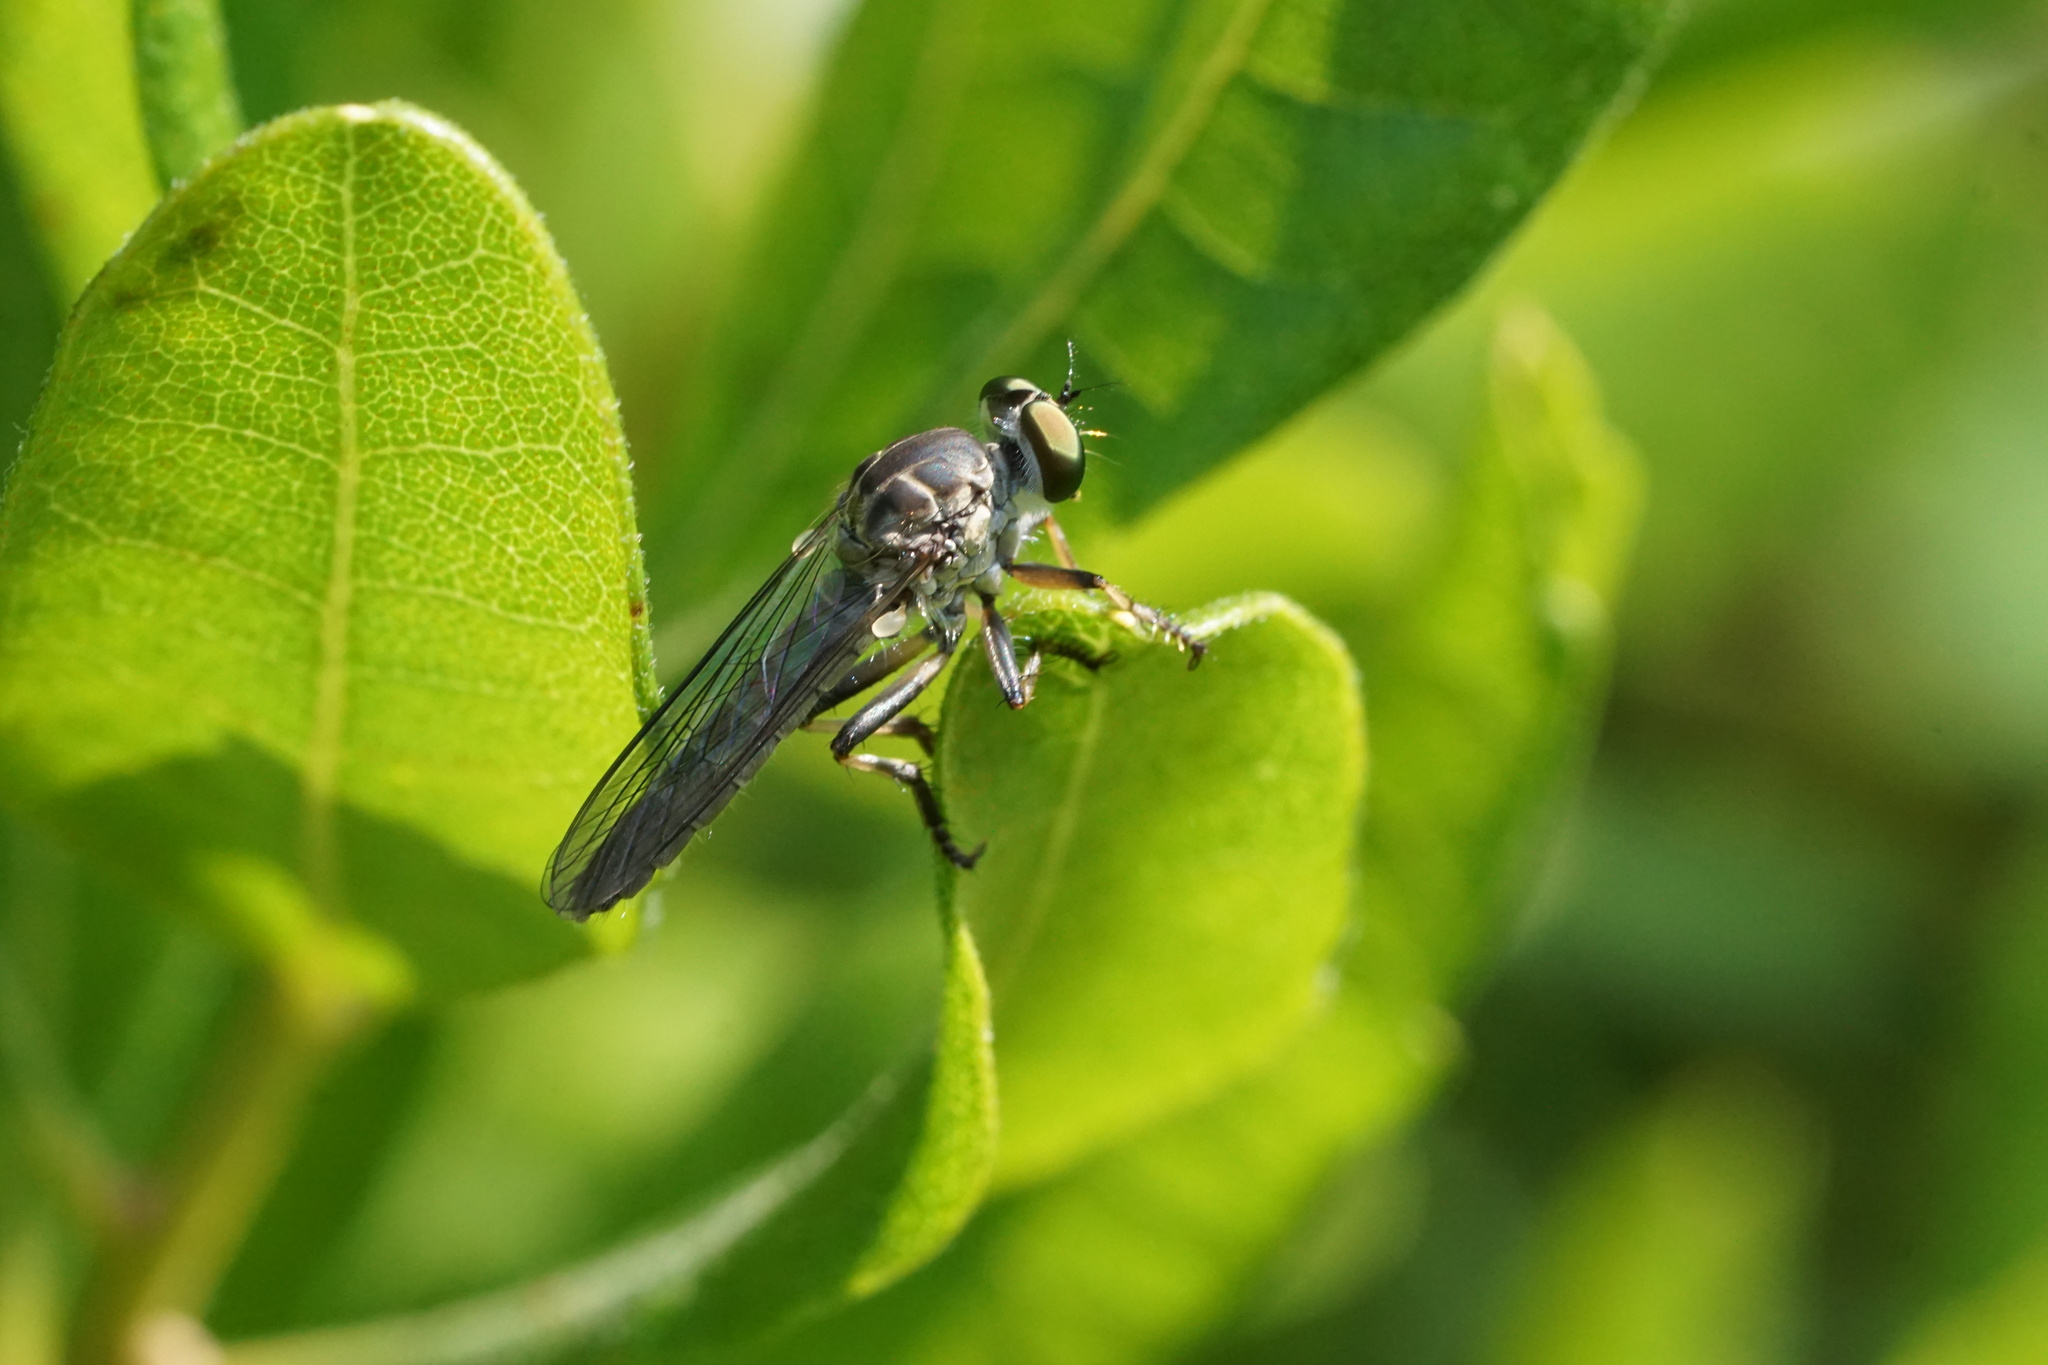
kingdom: Animalia
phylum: Arthropoda
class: Insecta
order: Diptera
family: Asilidae
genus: Ommatius
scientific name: Ommatius tibialis
